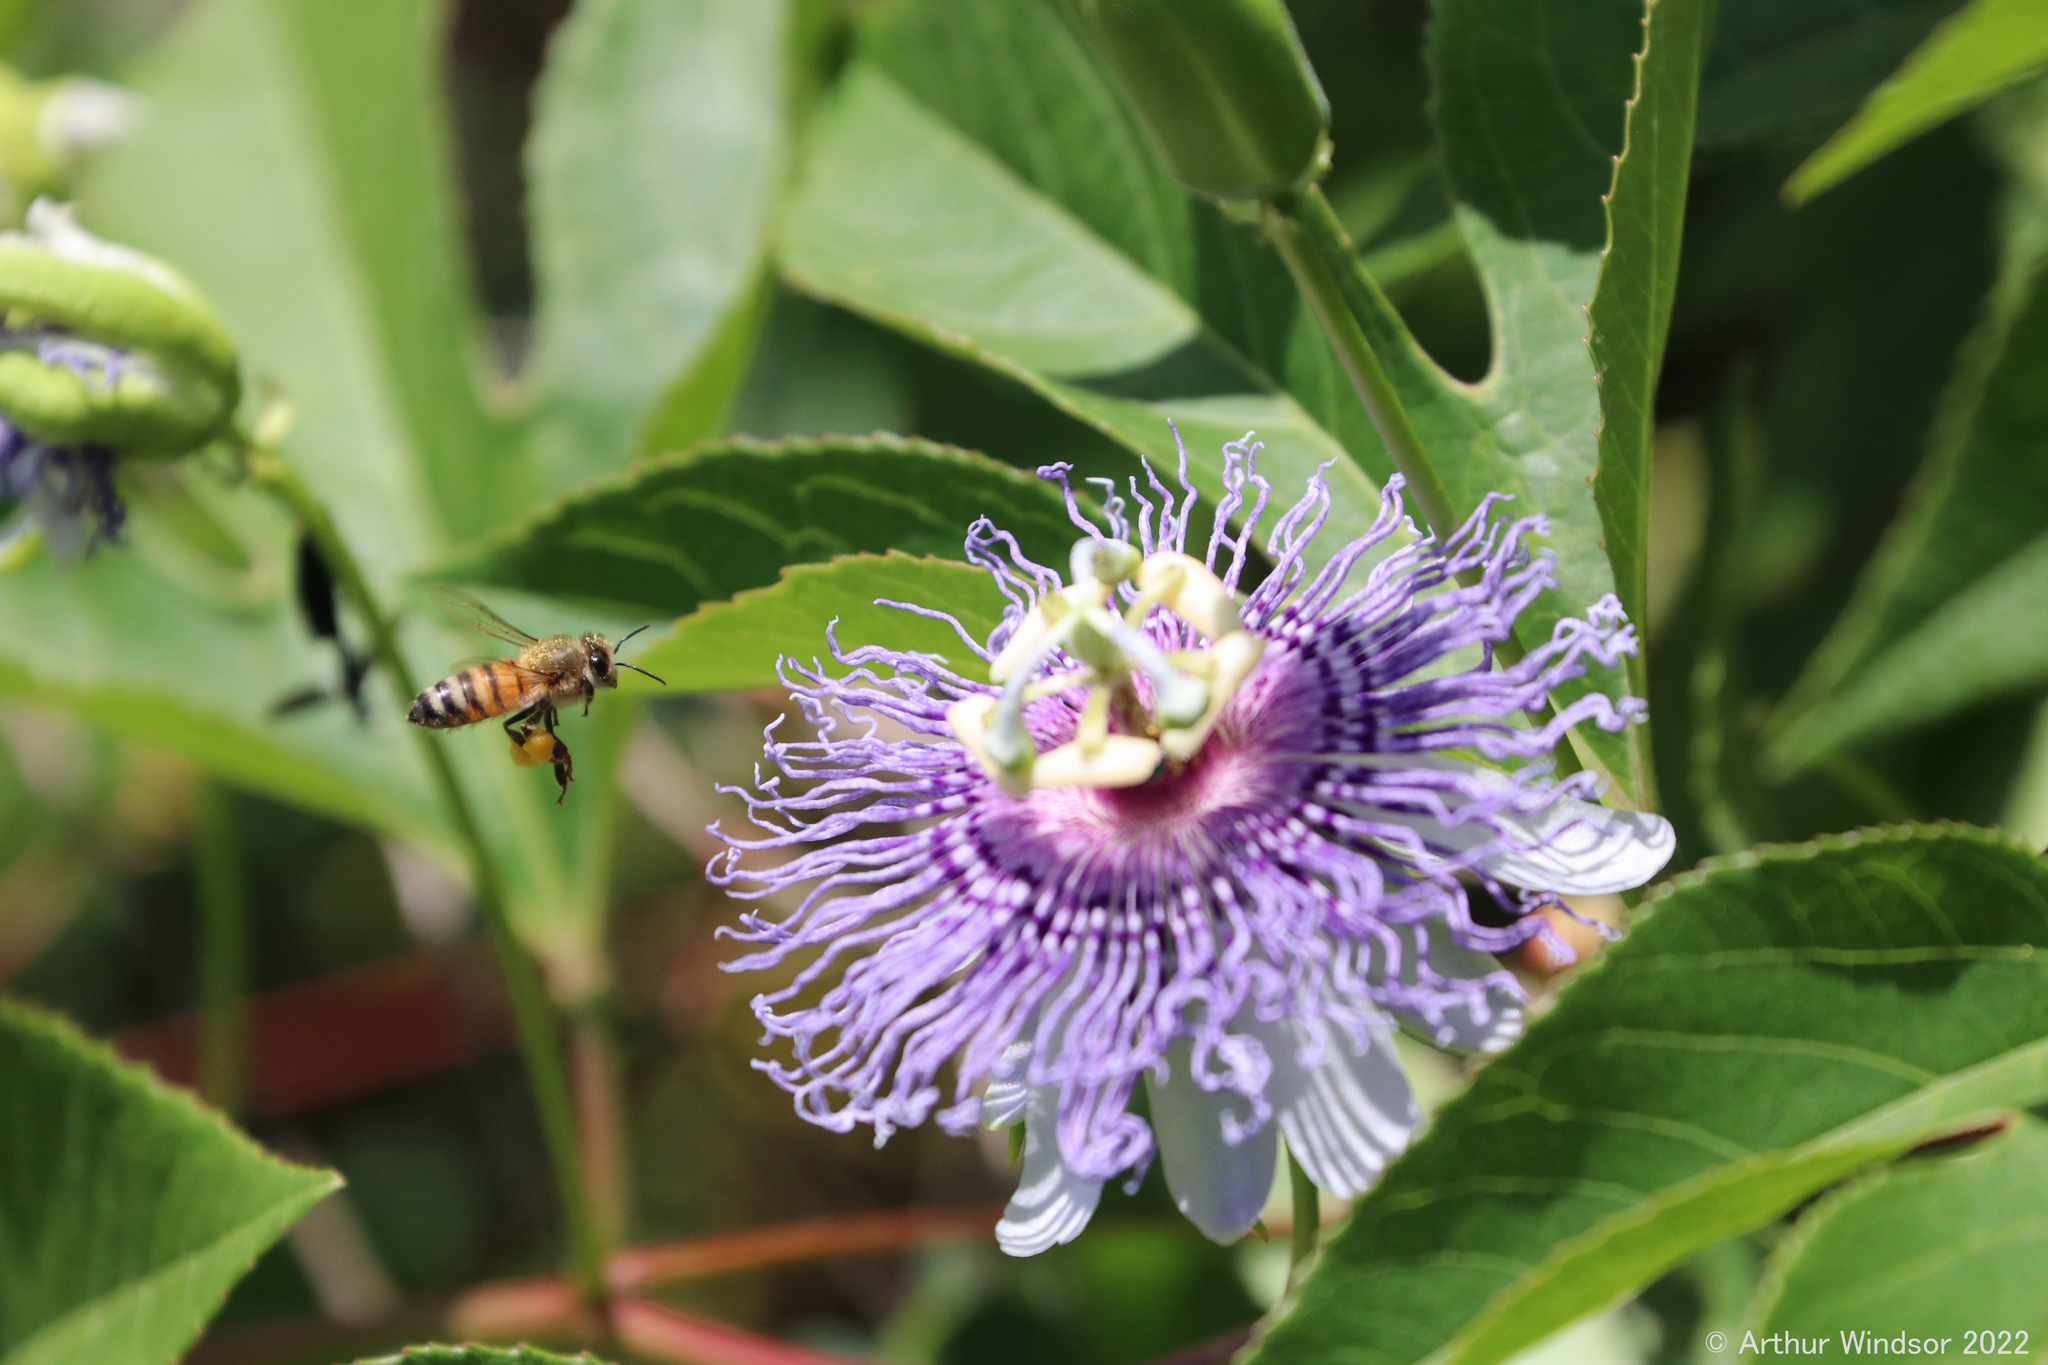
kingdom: Animalia
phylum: Arthropoda
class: Insecta
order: Hymenoptera
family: Apidae
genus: Apis
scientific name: Apis mellifera
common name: Honey bee
